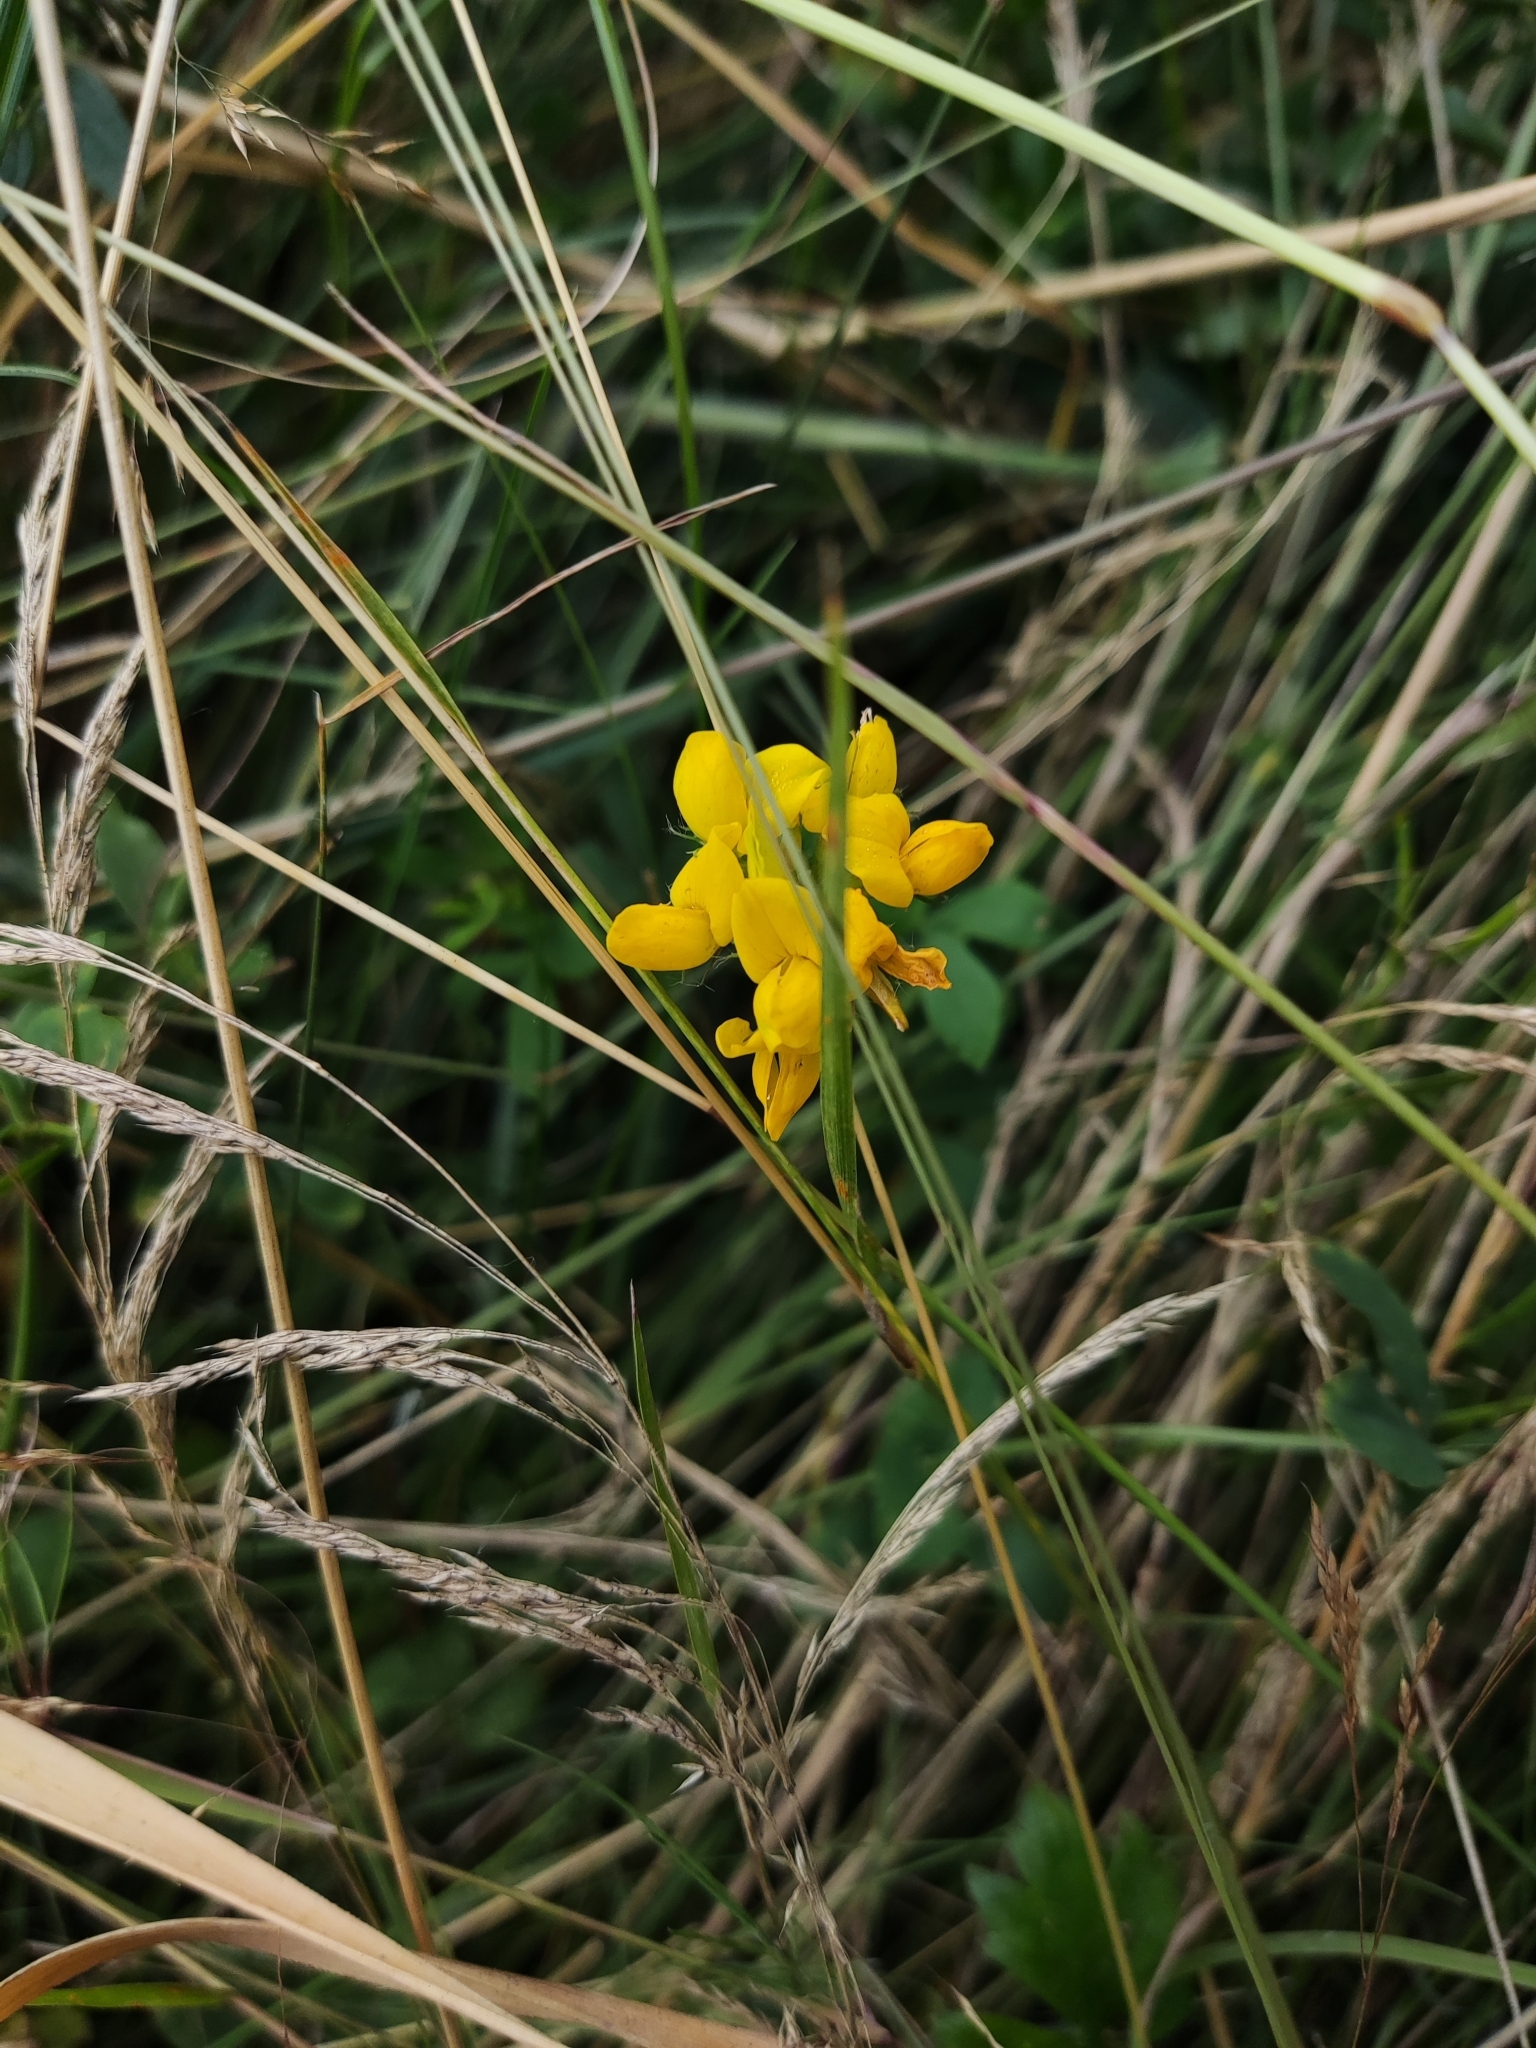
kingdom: Plantae
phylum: Tracheophyta
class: Magnoliopsida
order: Fabales
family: Fabaceae
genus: Lotus
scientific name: Lotus pedunculatus
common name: Greater birdsfoot-trefoil
